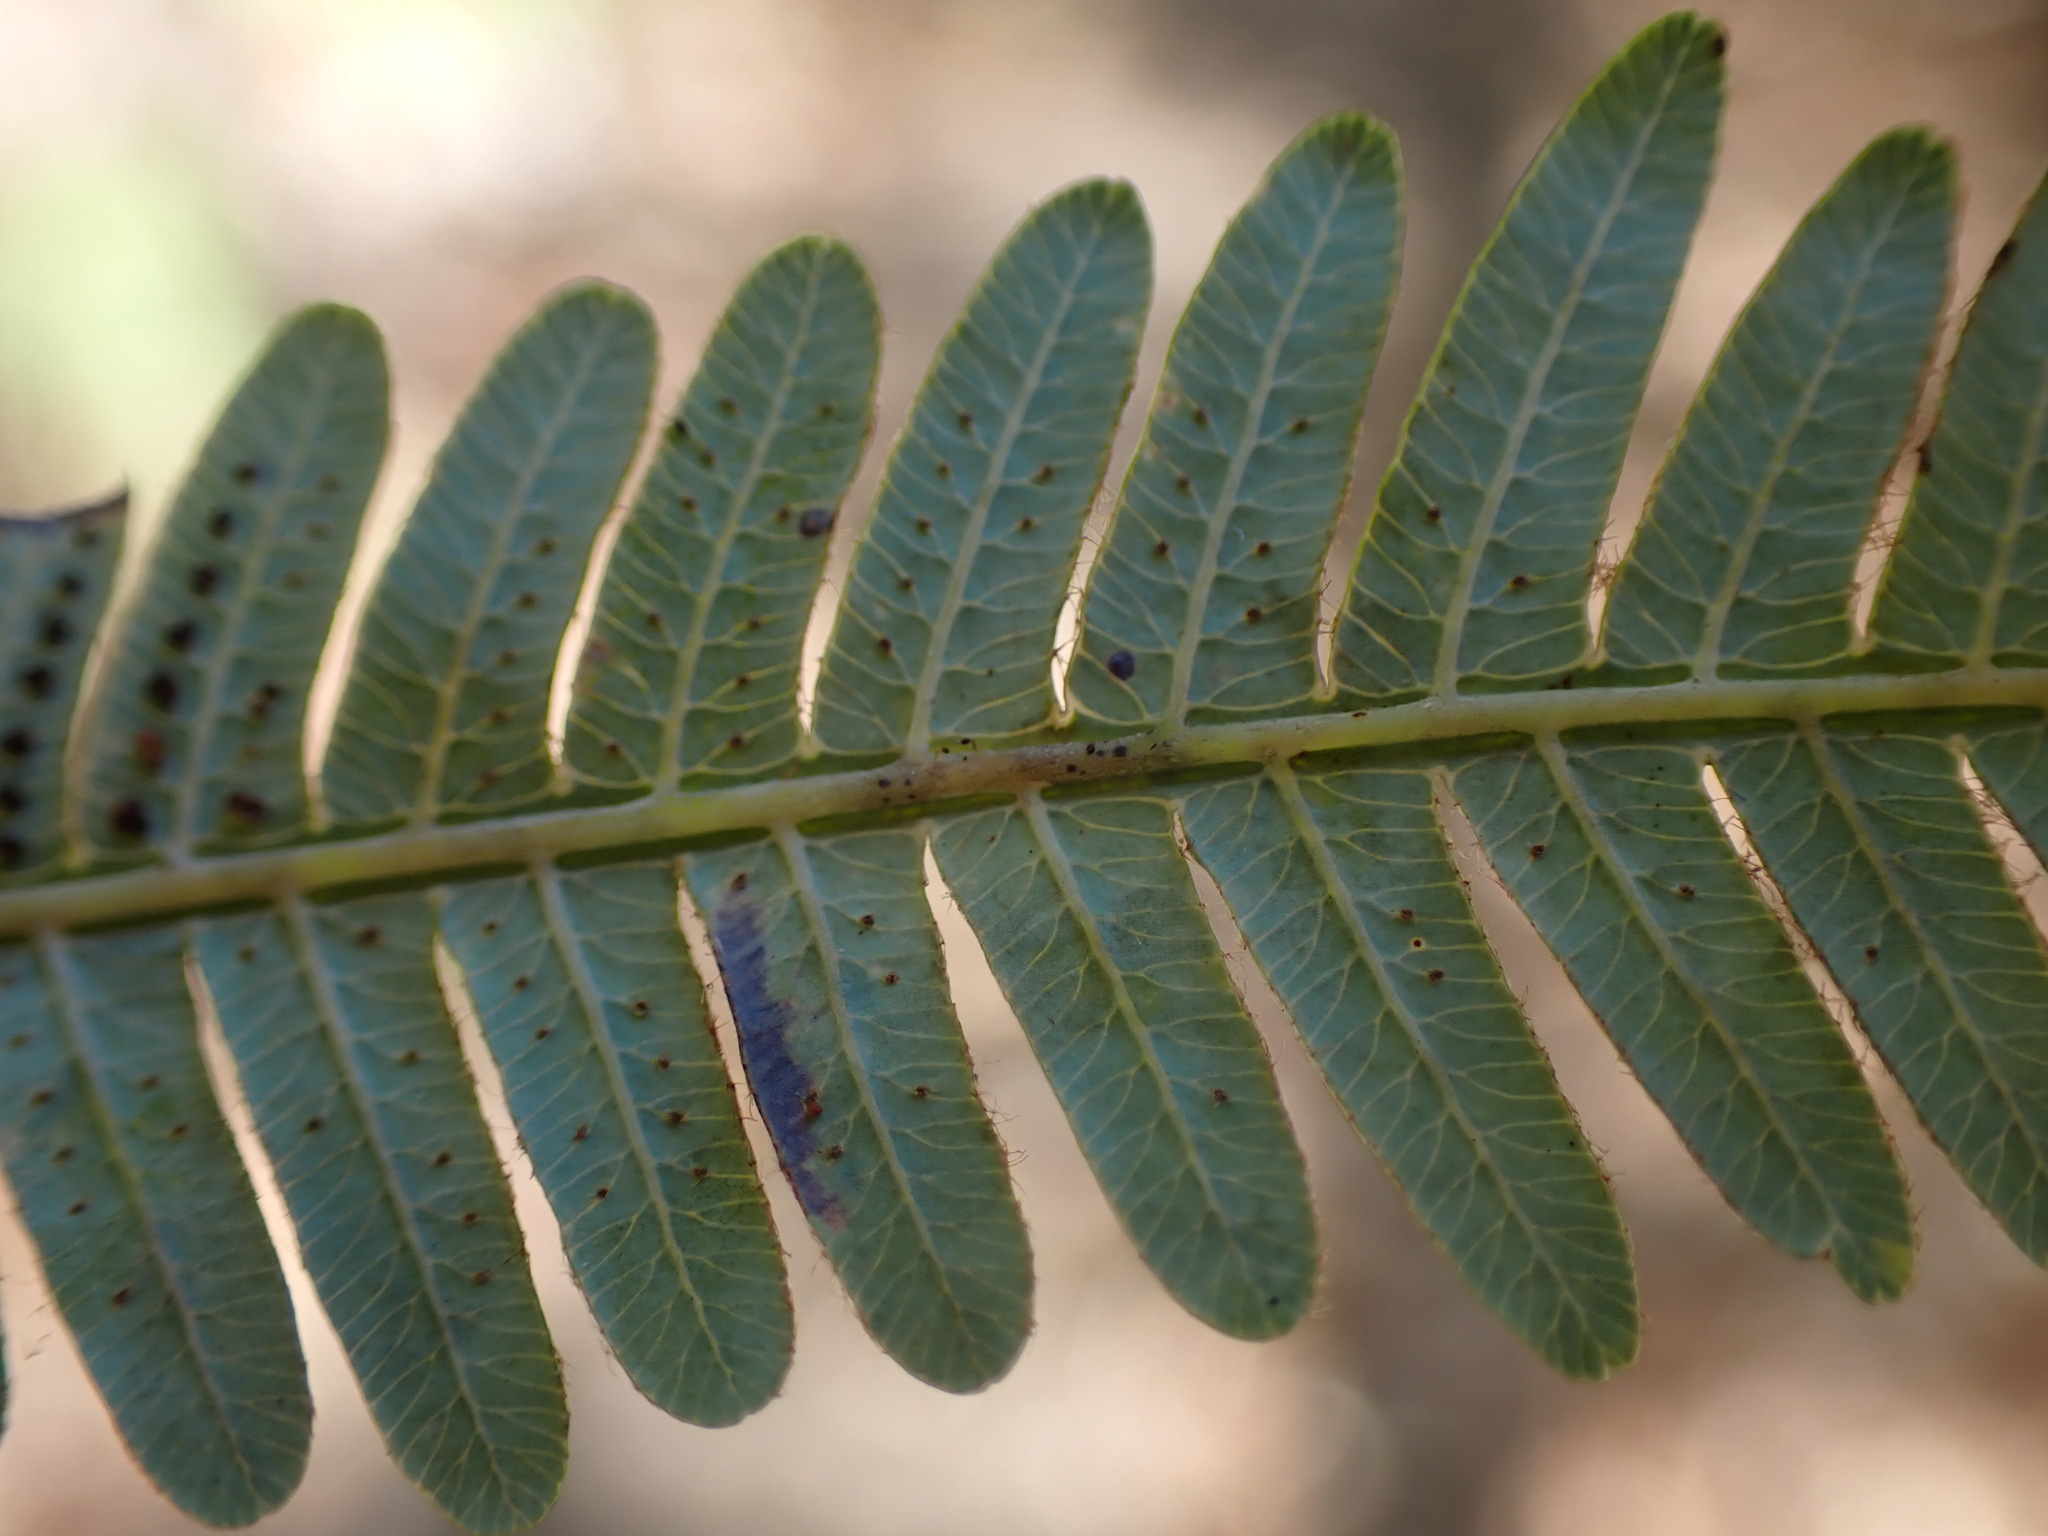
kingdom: Plantae
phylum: Tracheophyta
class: Polypodiopsida
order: Gleicheniales
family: Gleicheniaceae
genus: Diplopterygium
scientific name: Diplopterygium glaucum
